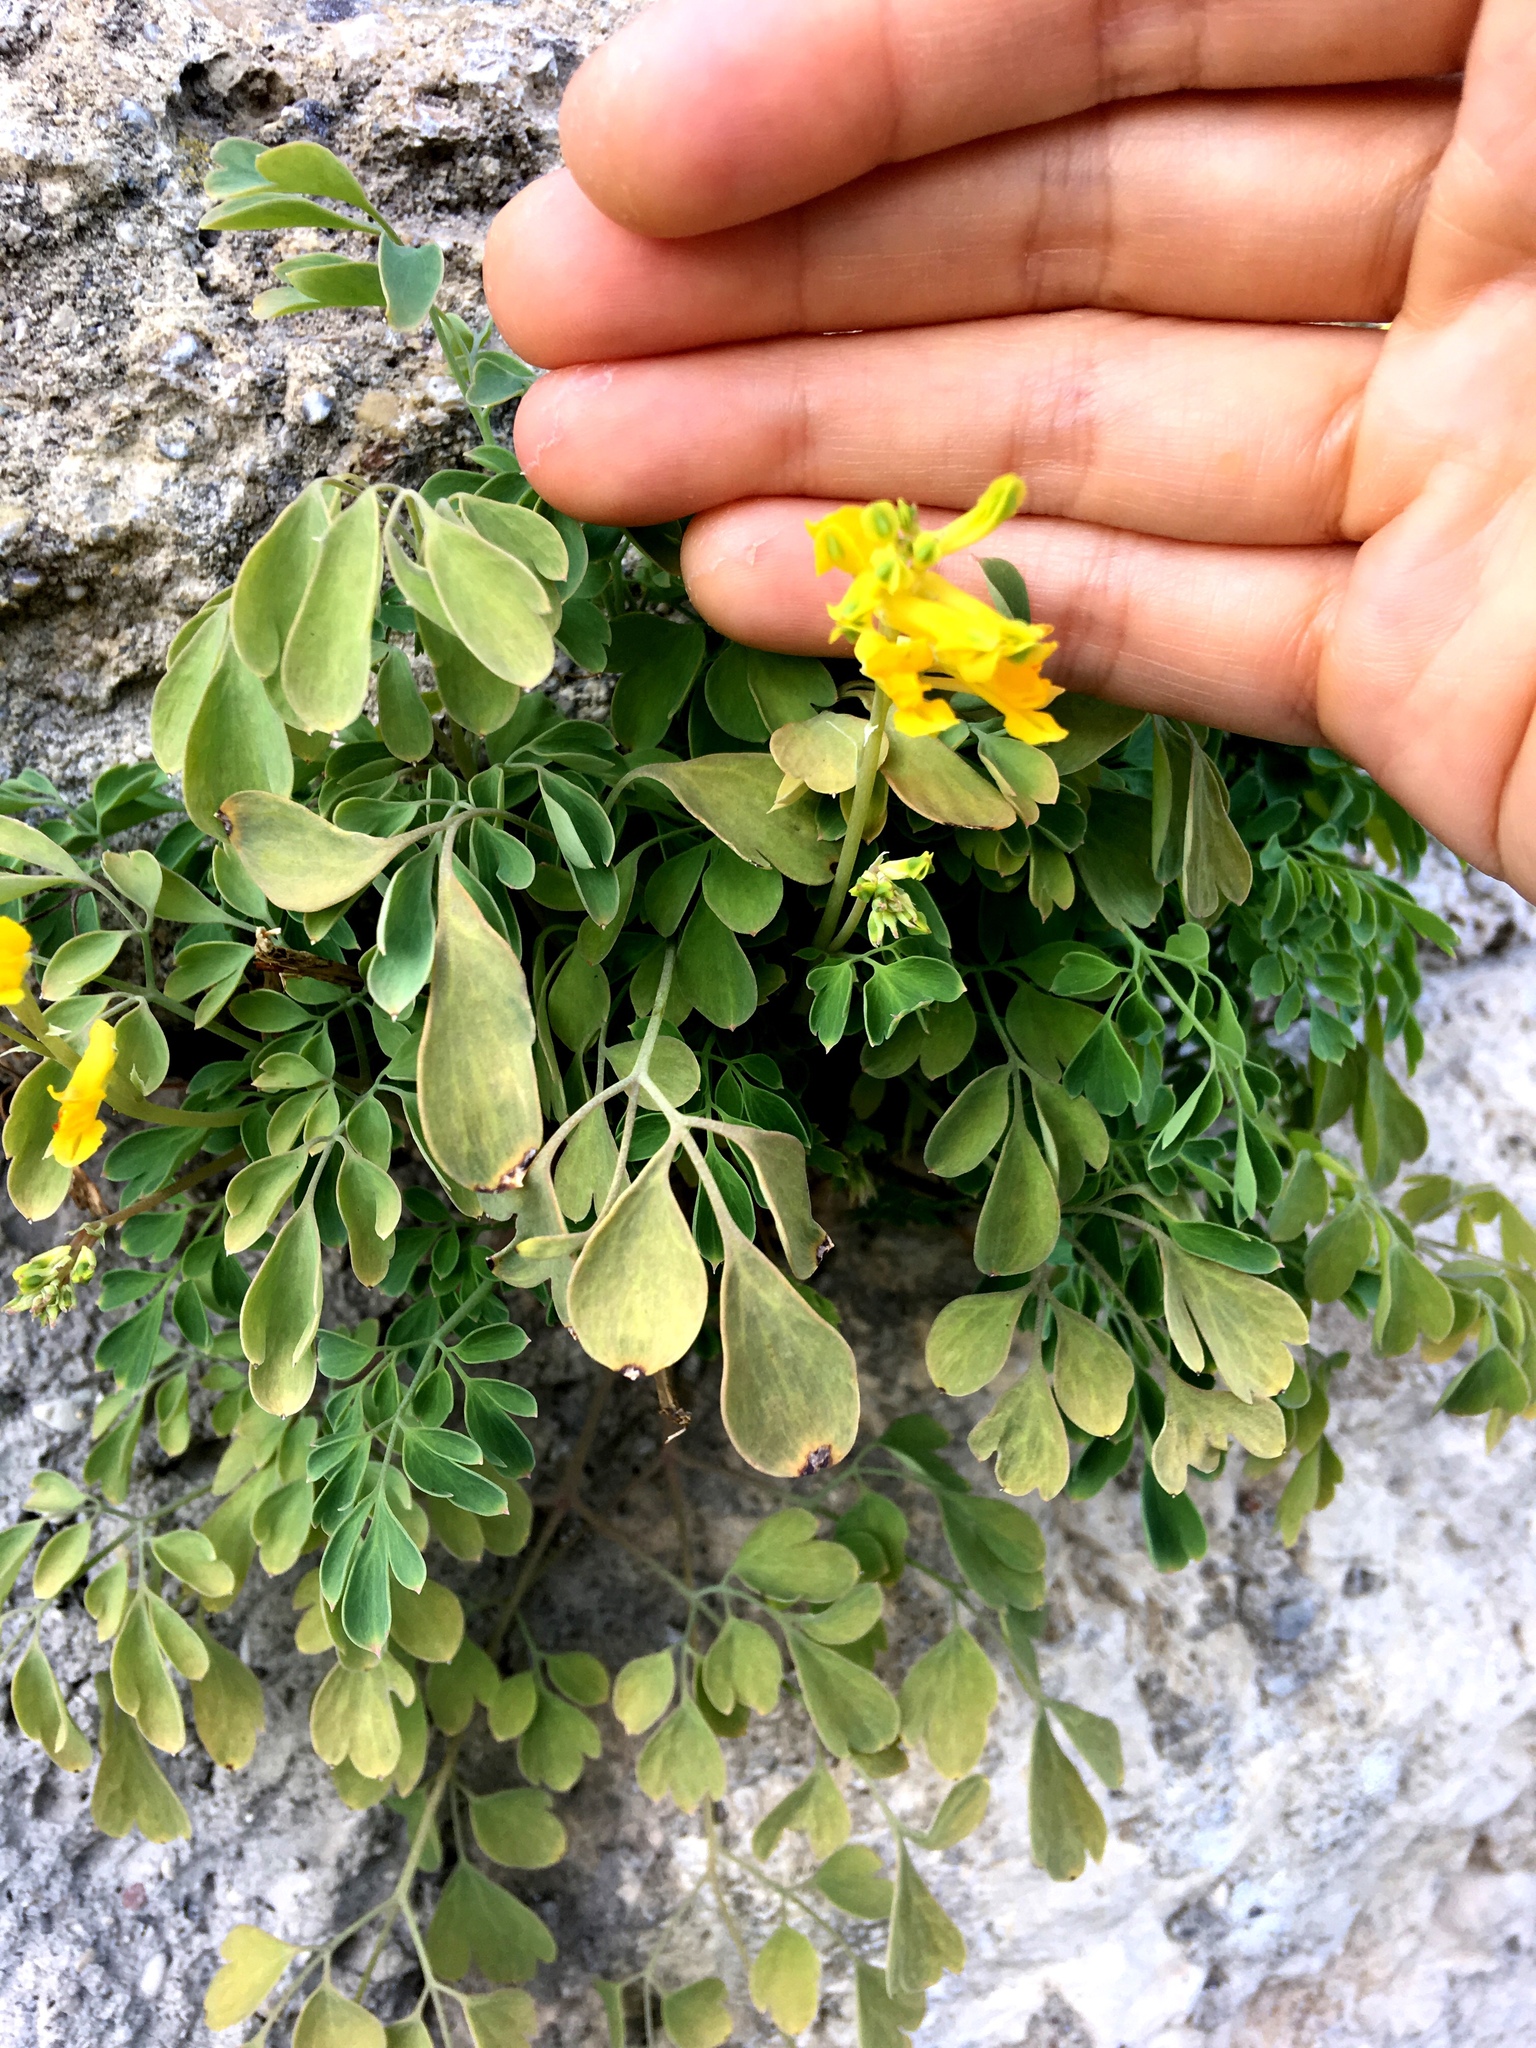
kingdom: Plantae
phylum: Tracheophyta
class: Magnoliopsida
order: Ranunculales
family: Papaveraceae
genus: Pseudofumaria
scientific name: Pseudofumaria lutea
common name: Yellow corydalis
